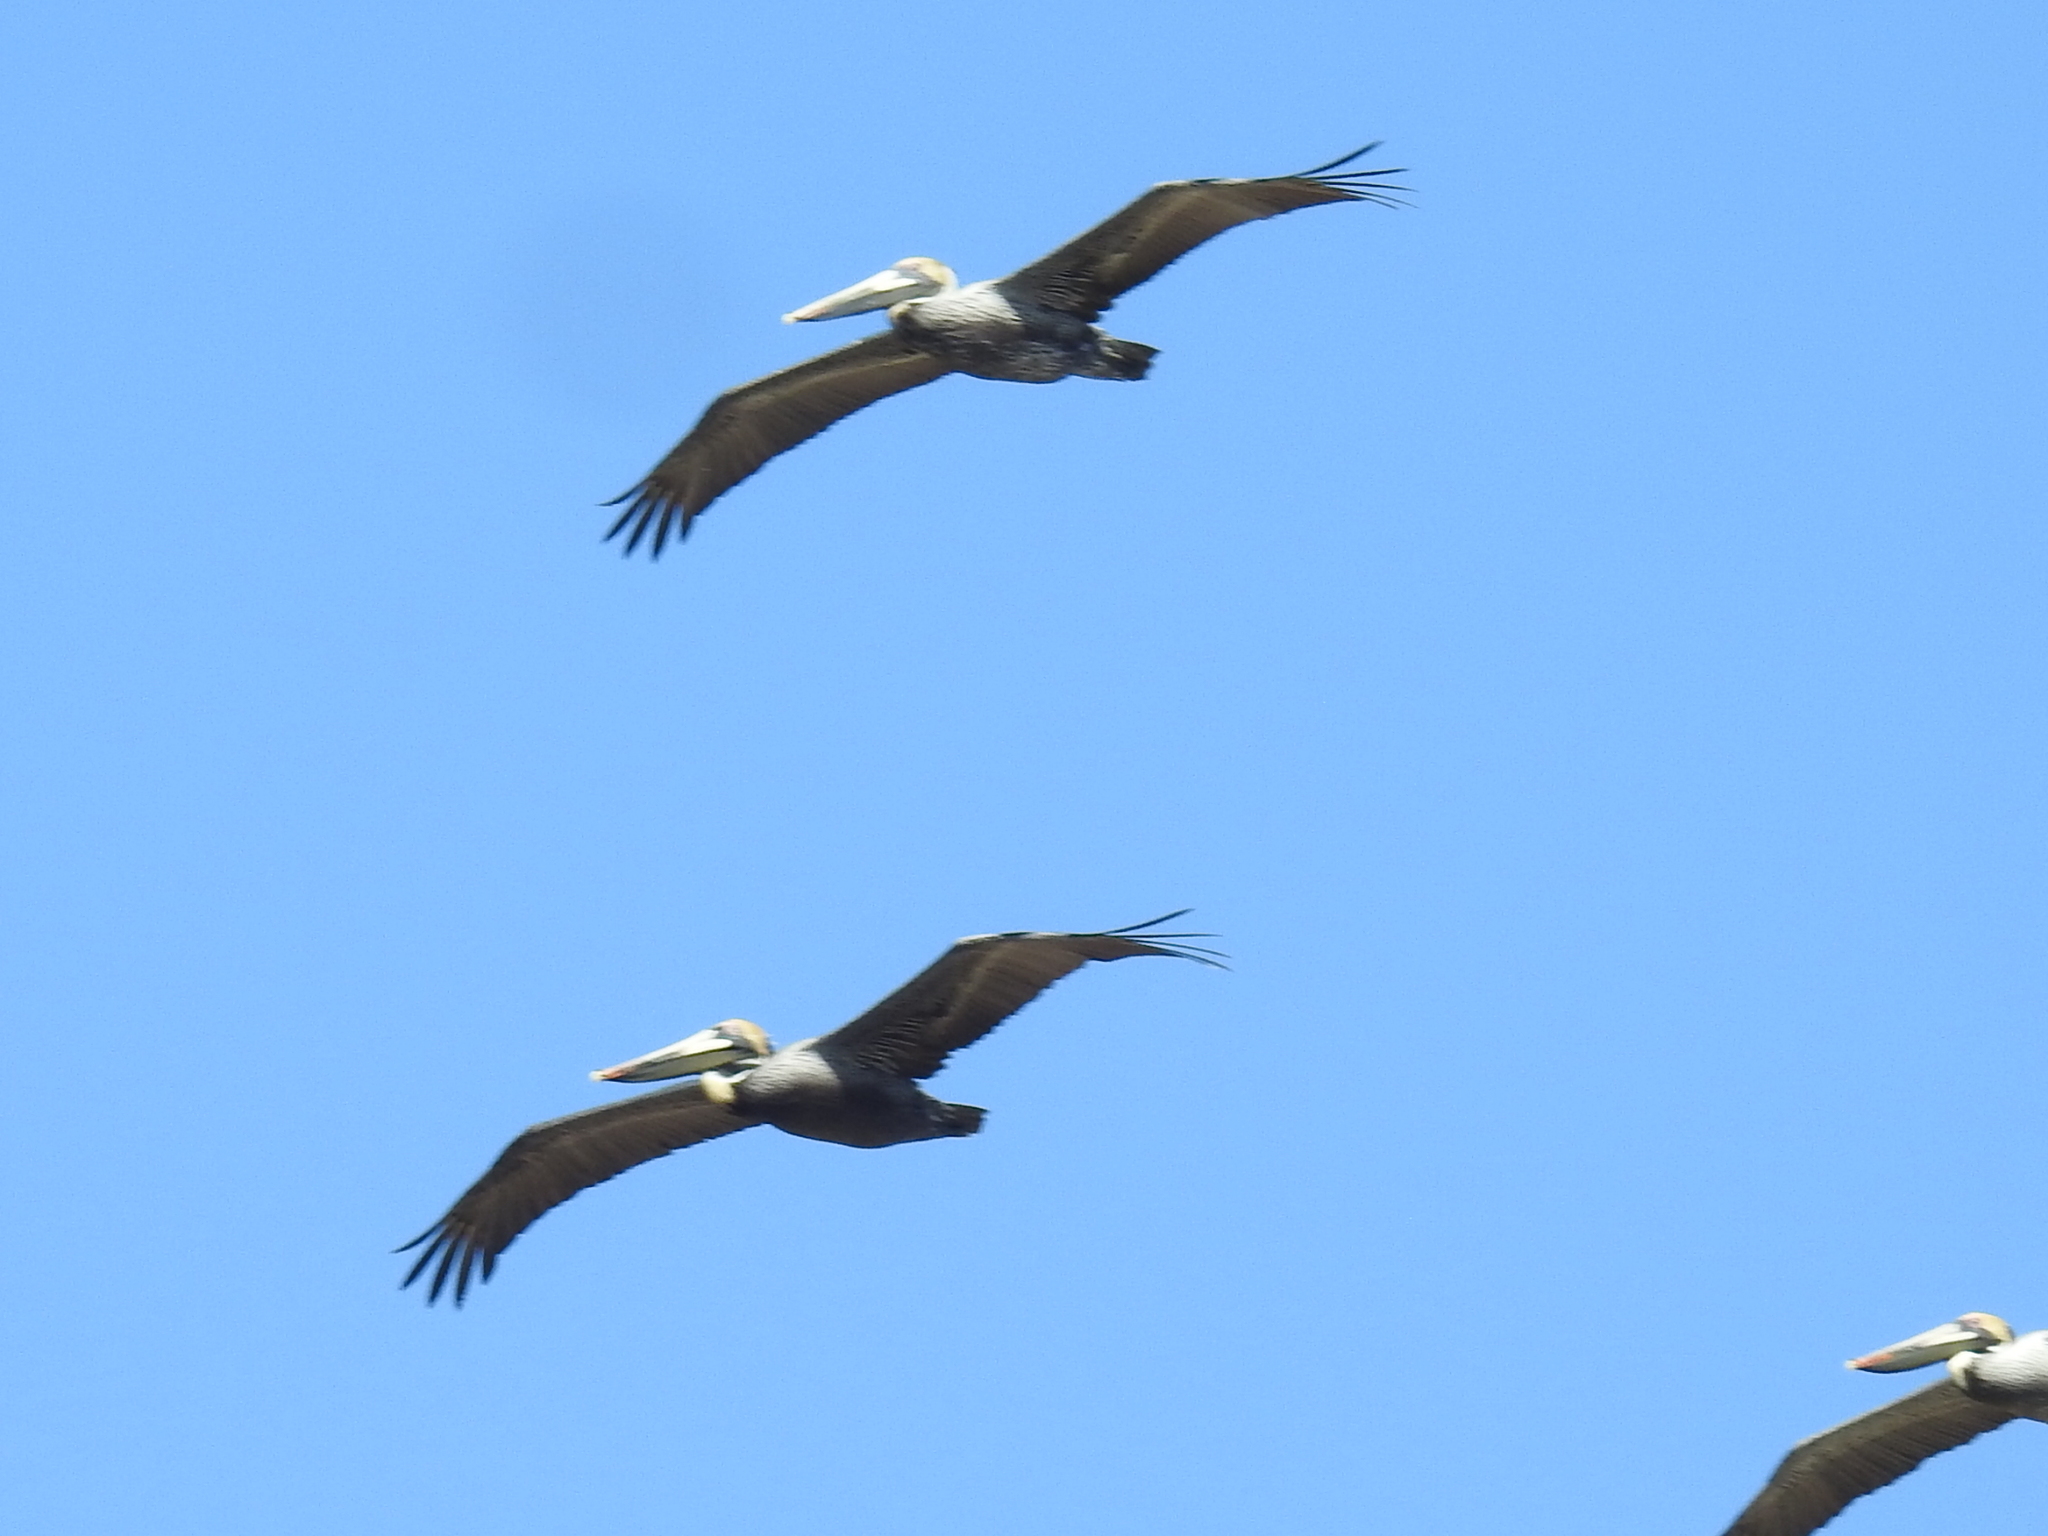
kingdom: Animalia
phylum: Chordata
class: Aves
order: Pelecaniformes
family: Pelecanidae
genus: Pelecanus
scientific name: Pelecanus occidentalis
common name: Brown pelican
